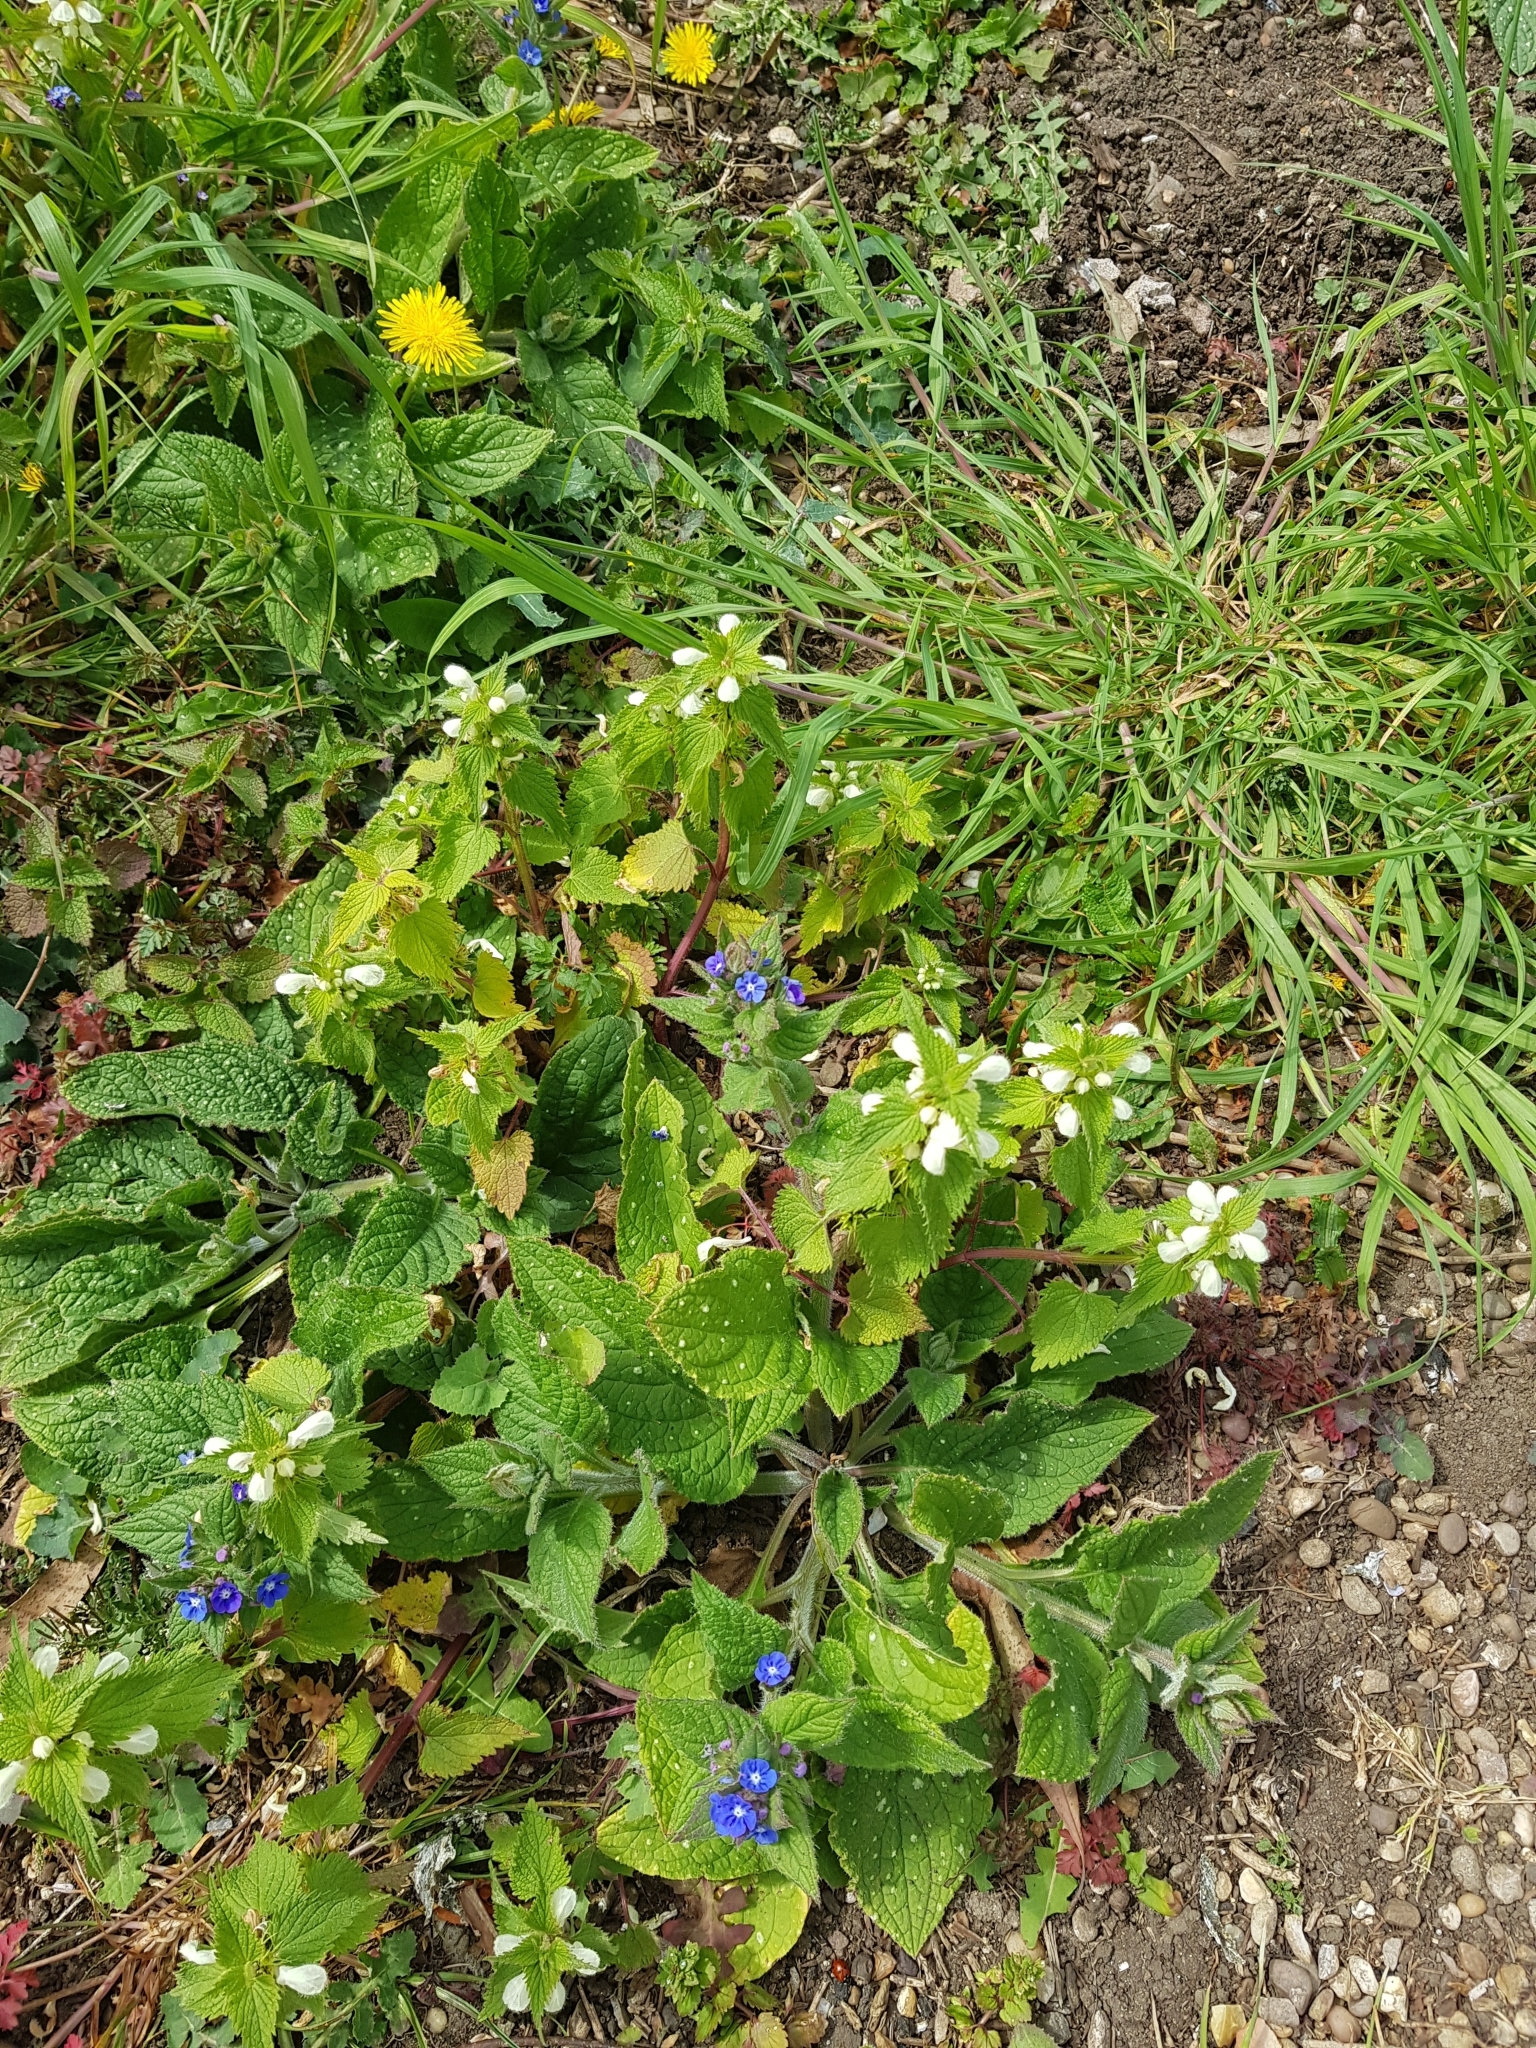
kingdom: Plantae
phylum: Tracheophyta
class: Magnoliopsida
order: Lamiales
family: Lamiaceae
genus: Lamium
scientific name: Lamium album
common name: White dead-nettle
